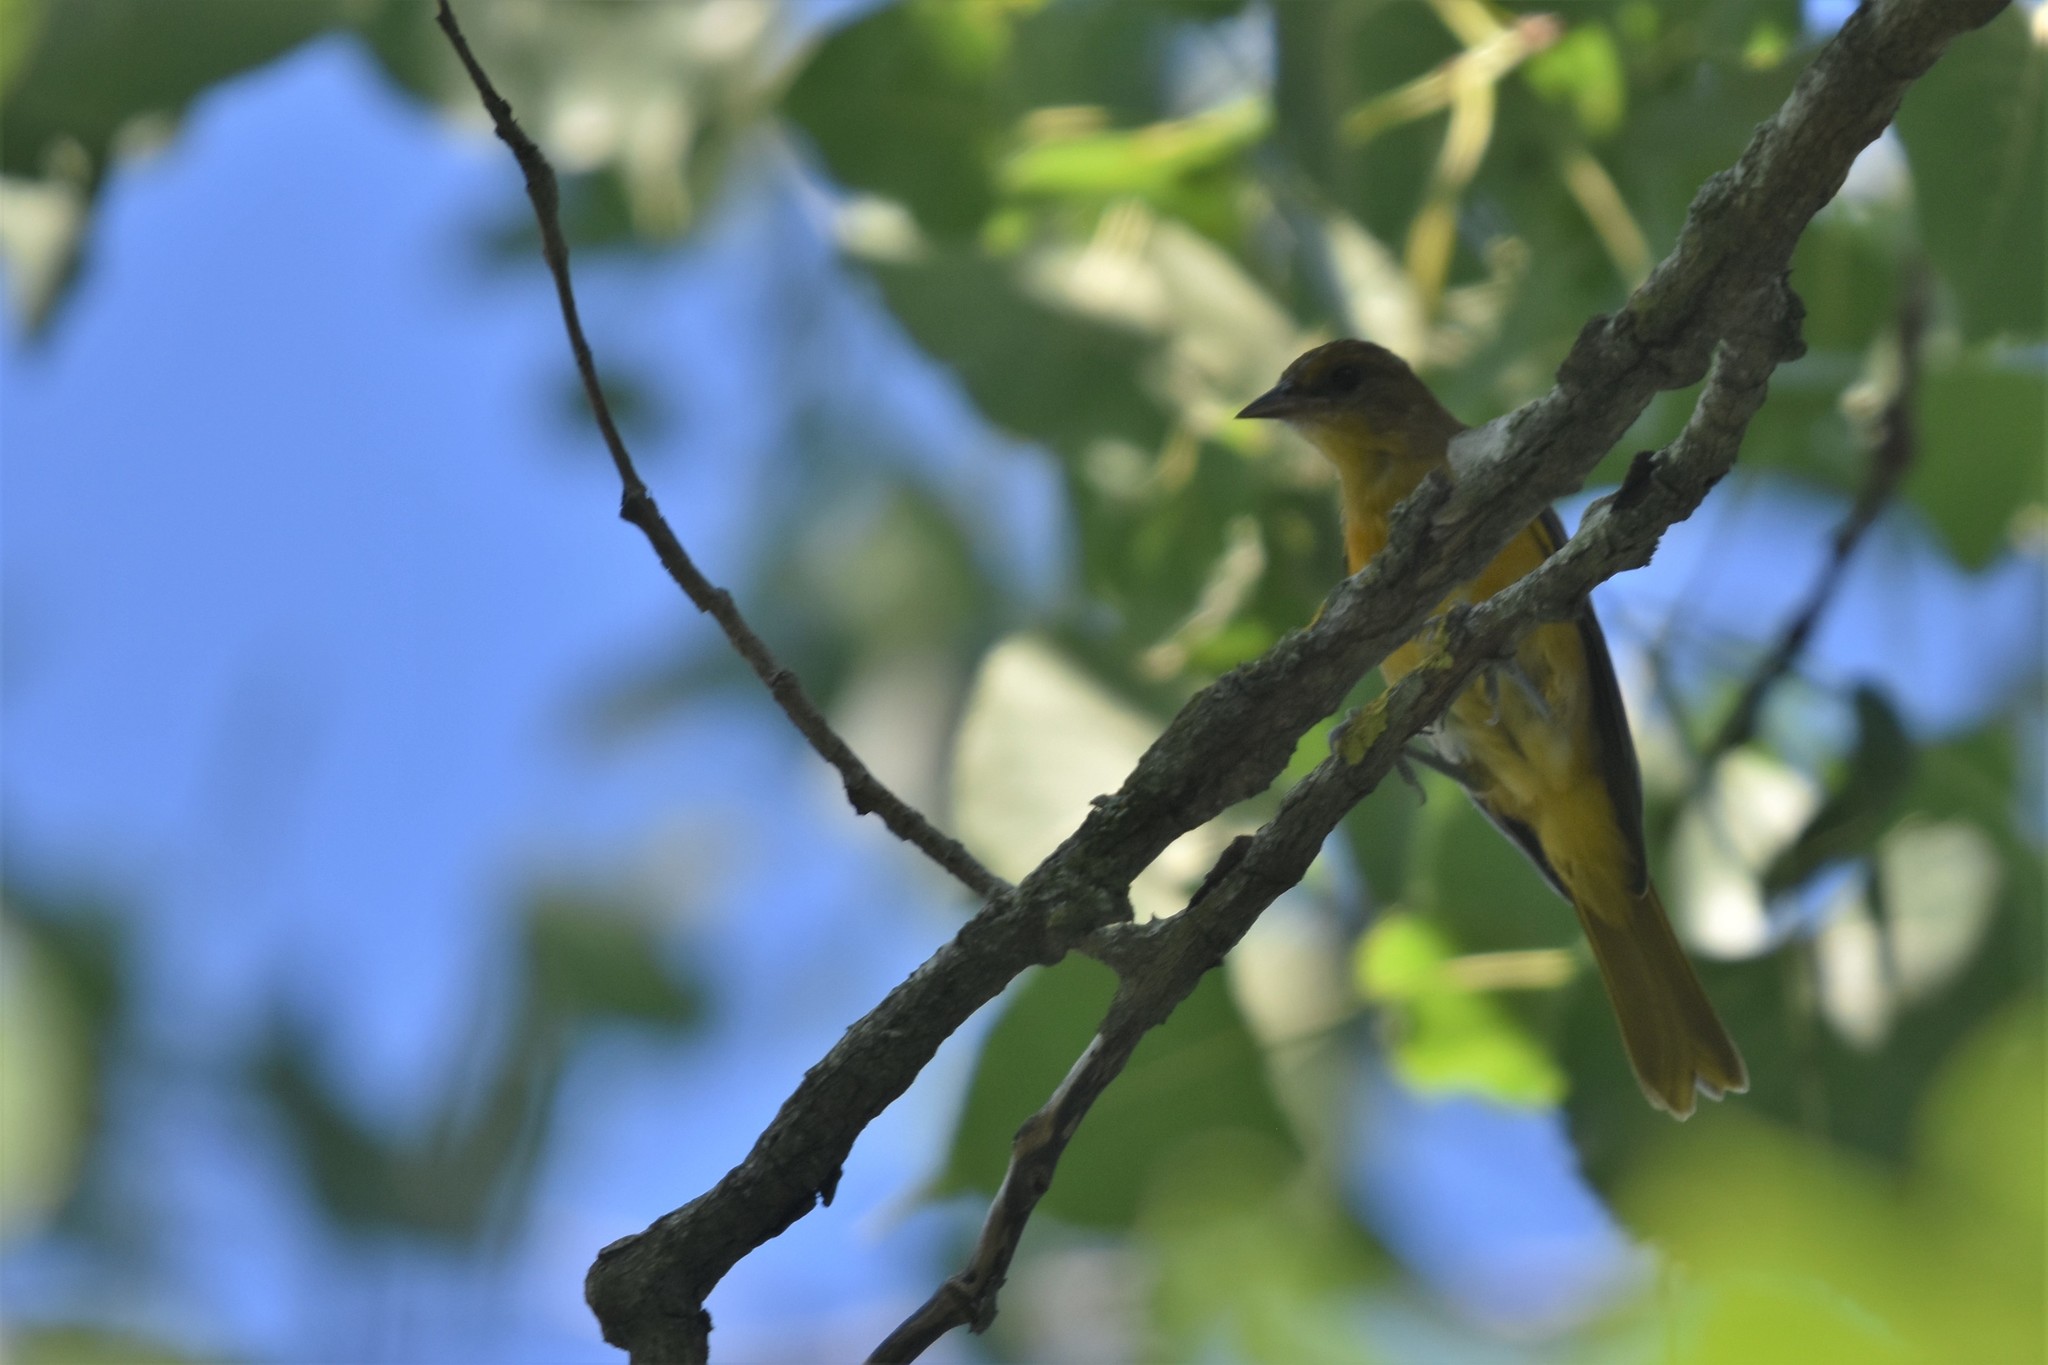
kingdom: Animalia
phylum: Chordata
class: Aves
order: Passeriformes
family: Icteridae
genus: Icterus
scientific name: Icterus galbula
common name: Baltimore oriole
